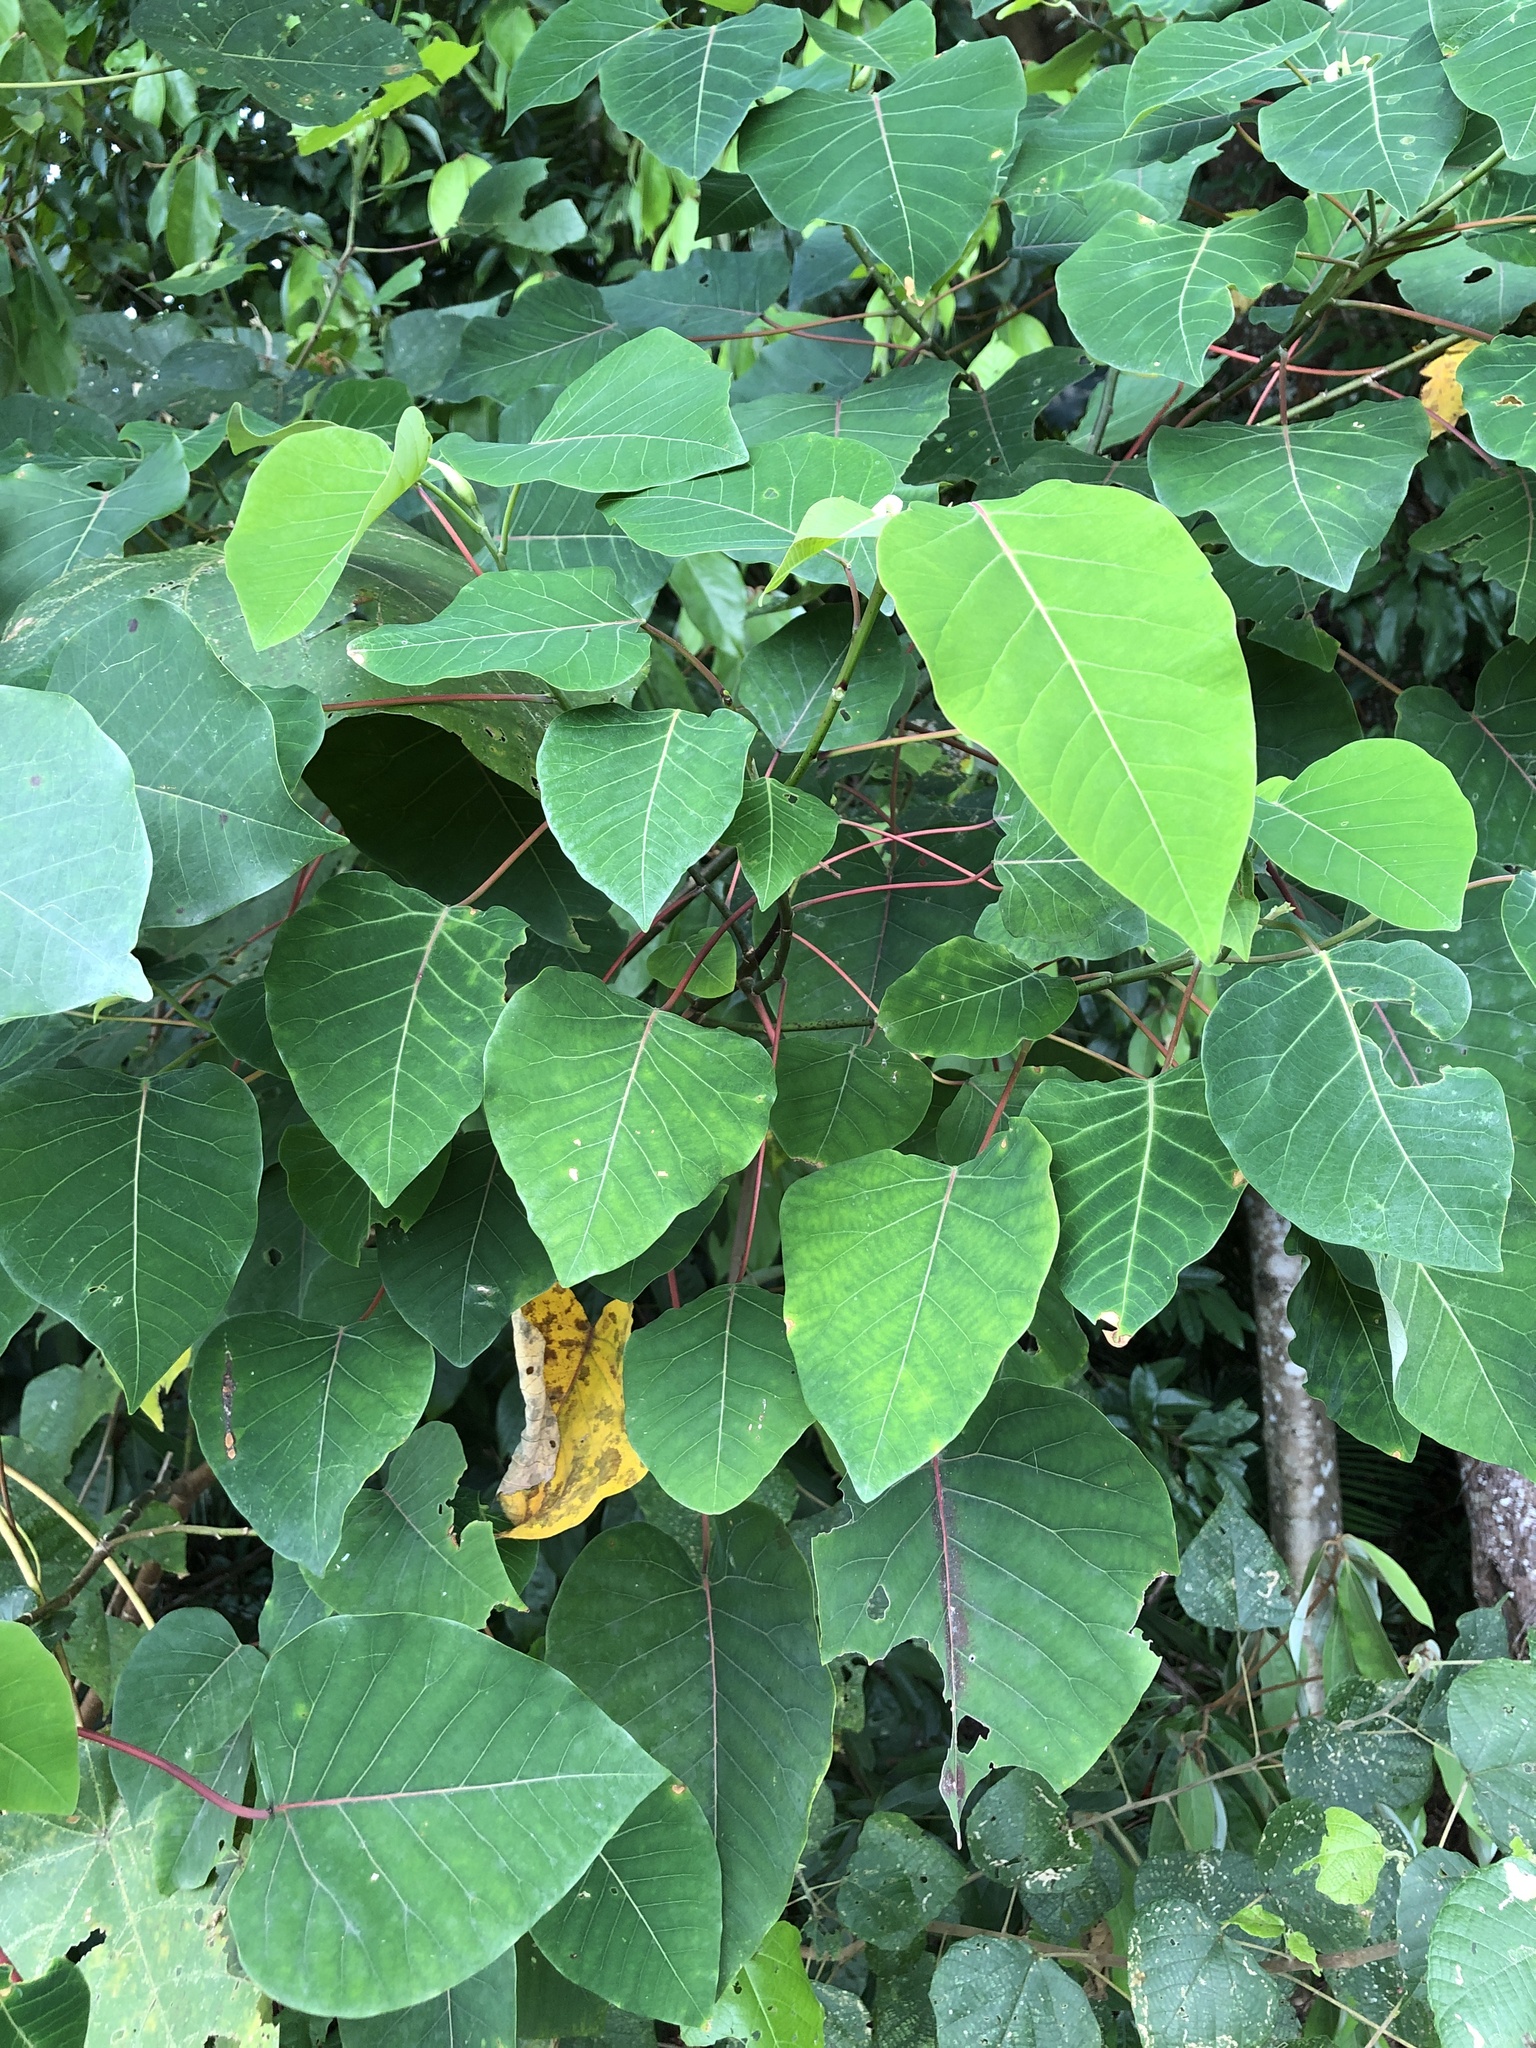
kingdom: Plantae
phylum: Tracheophyta
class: Magnoliopsida
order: Malpighiales
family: Euphorbiaceae
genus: Homalanthus
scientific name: Homalanthus populifolius
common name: Queensland poplar
